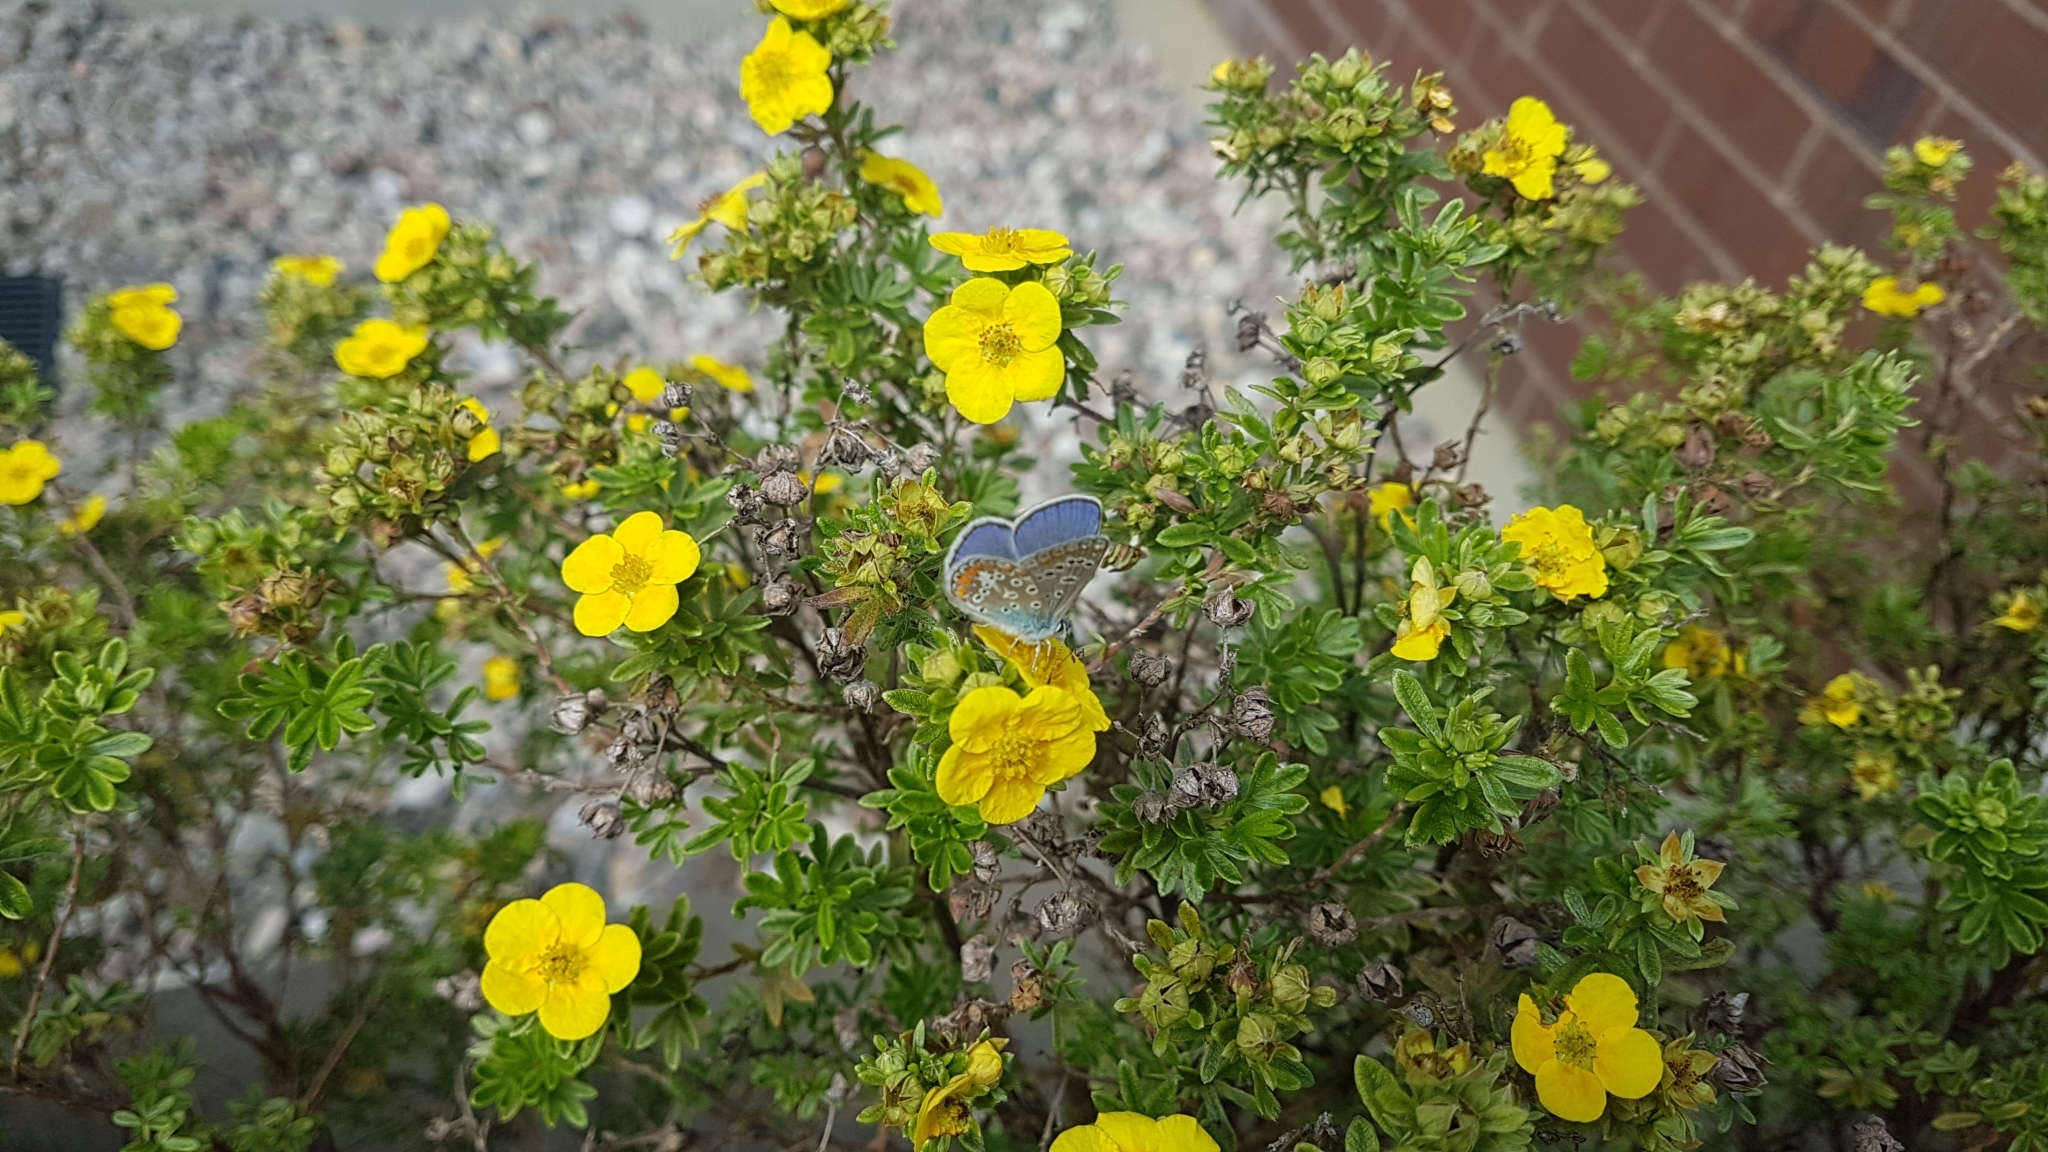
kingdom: Animalia
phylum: Arthropoda
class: Insecta
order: Lepidoptera
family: Lycaenidae
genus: Polyommatus
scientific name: Polyommatus icarus
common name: Common blue
